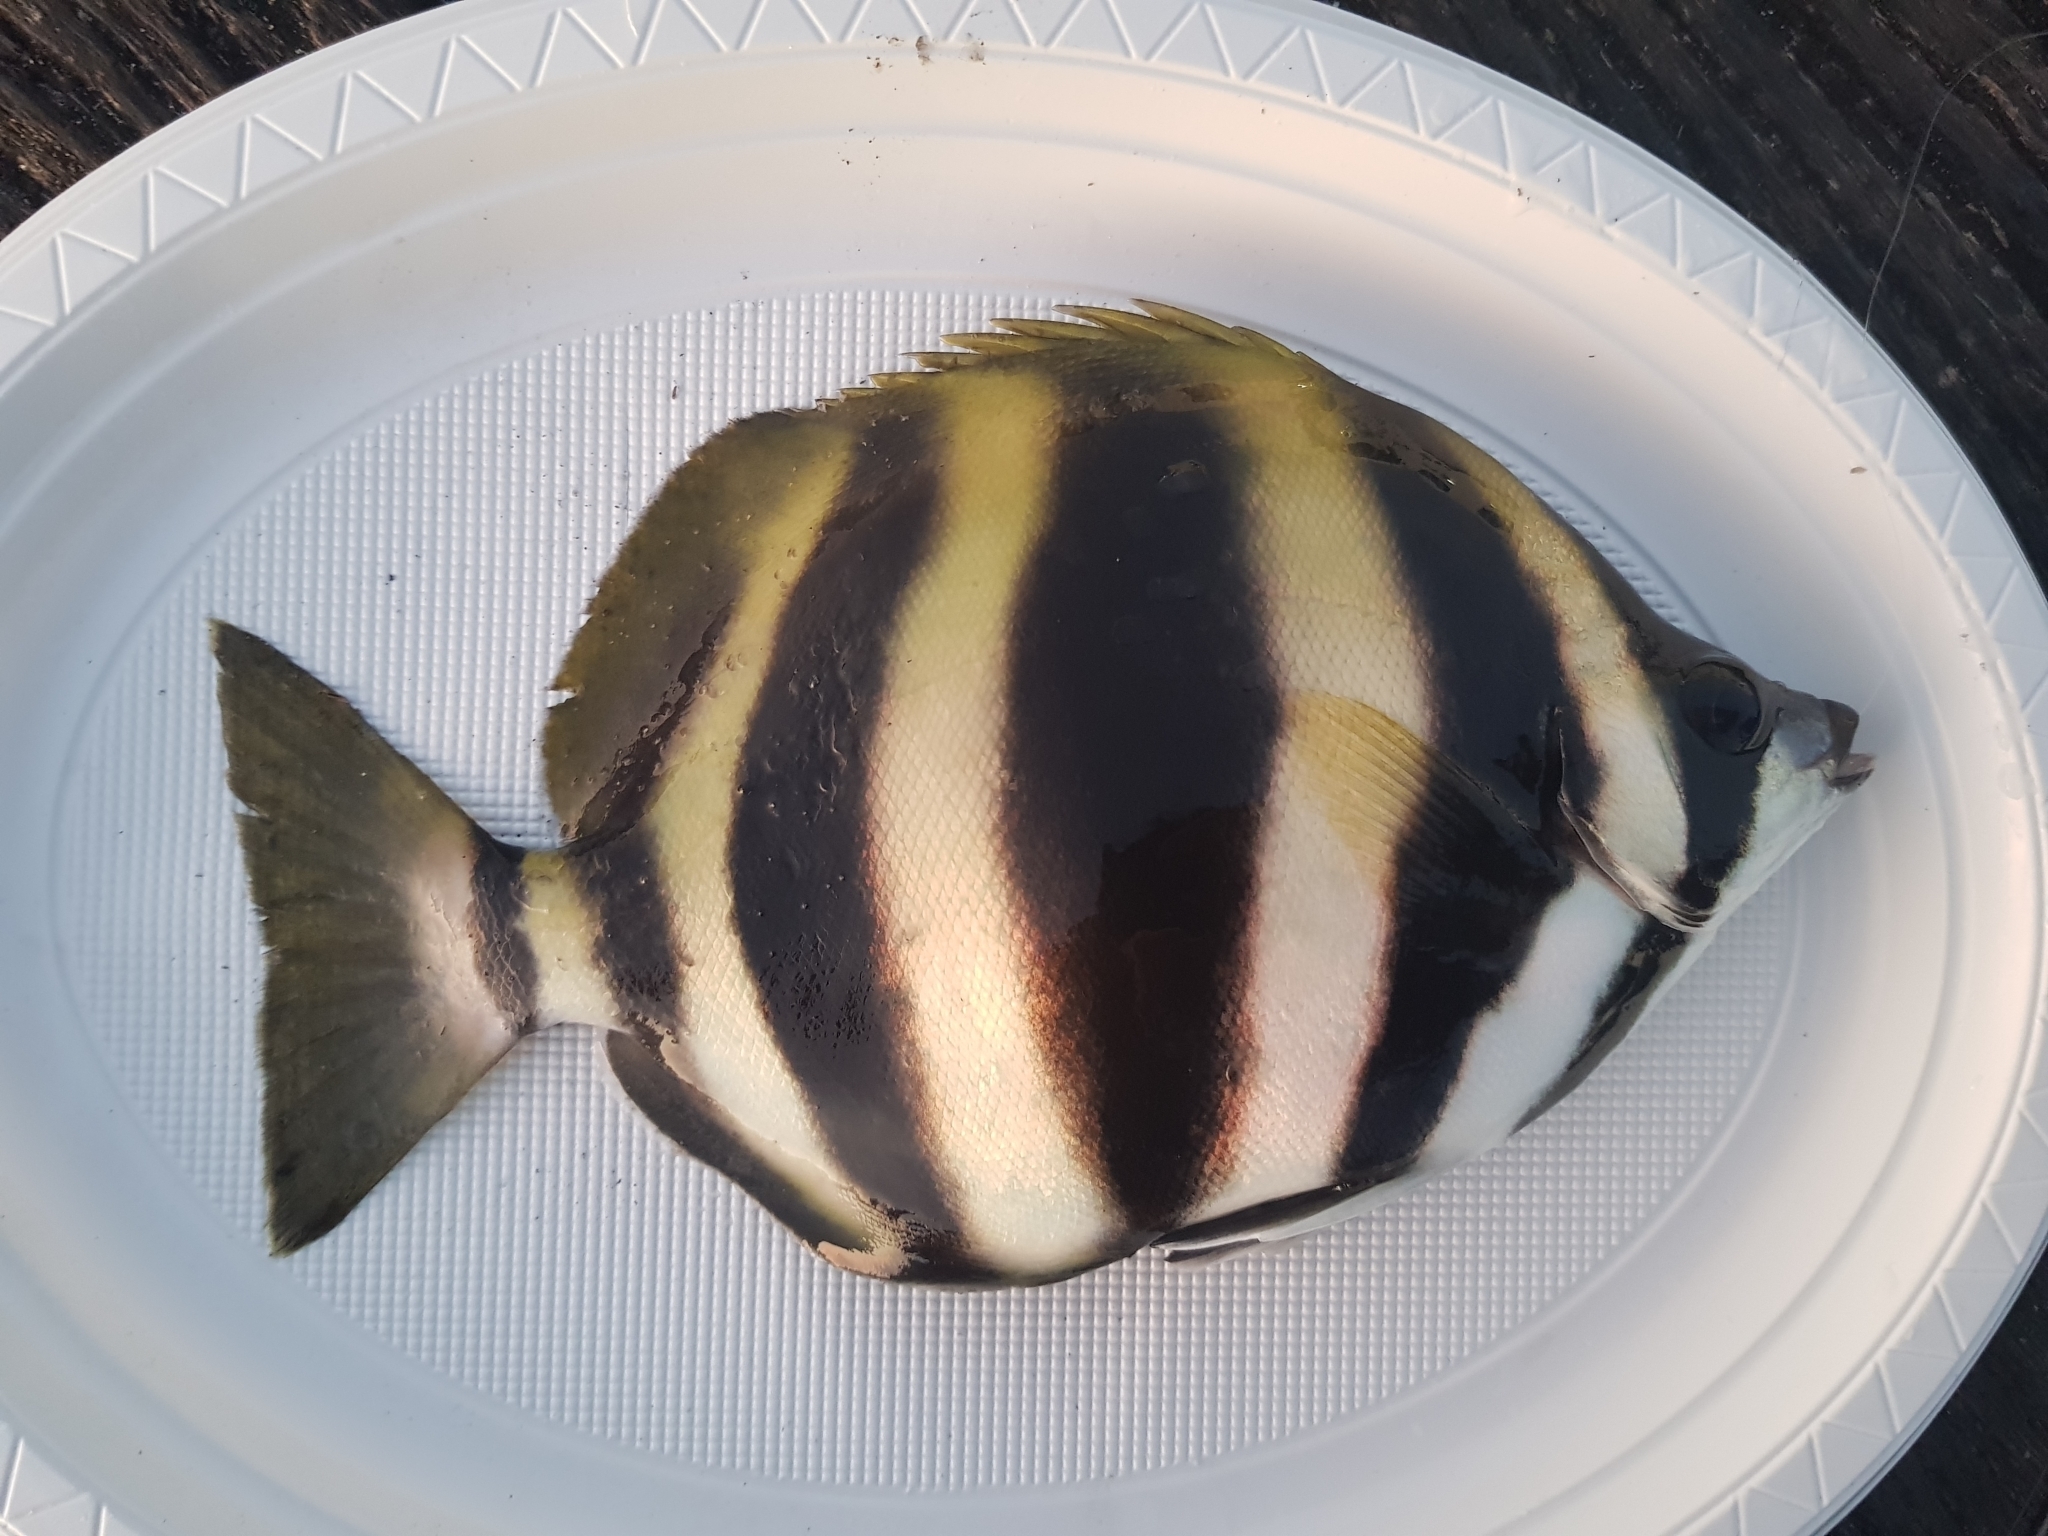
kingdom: Animalia
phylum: Chordata
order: Perciformes
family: Kyphosidae
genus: Tilodon
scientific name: Tilodon sexfasciatus
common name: Moonlighter
